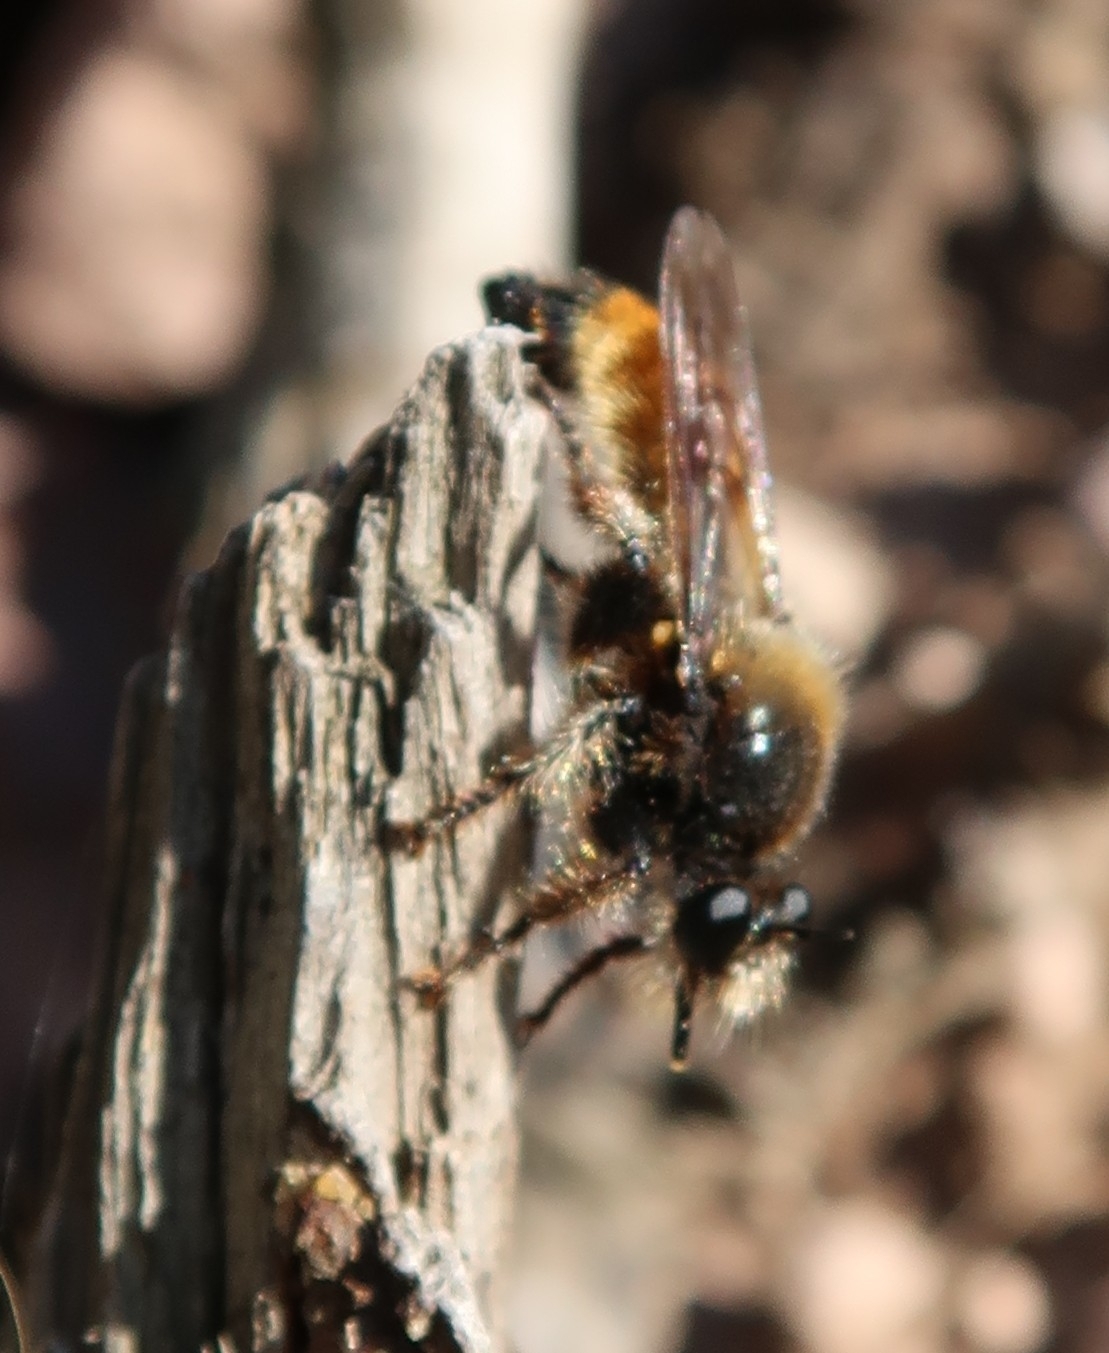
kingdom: Animalia
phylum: Arthropoda
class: Insecta
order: Diptera
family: Asilidae
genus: Laphria
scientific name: Laphria flava
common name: Bumblebee robberfly
